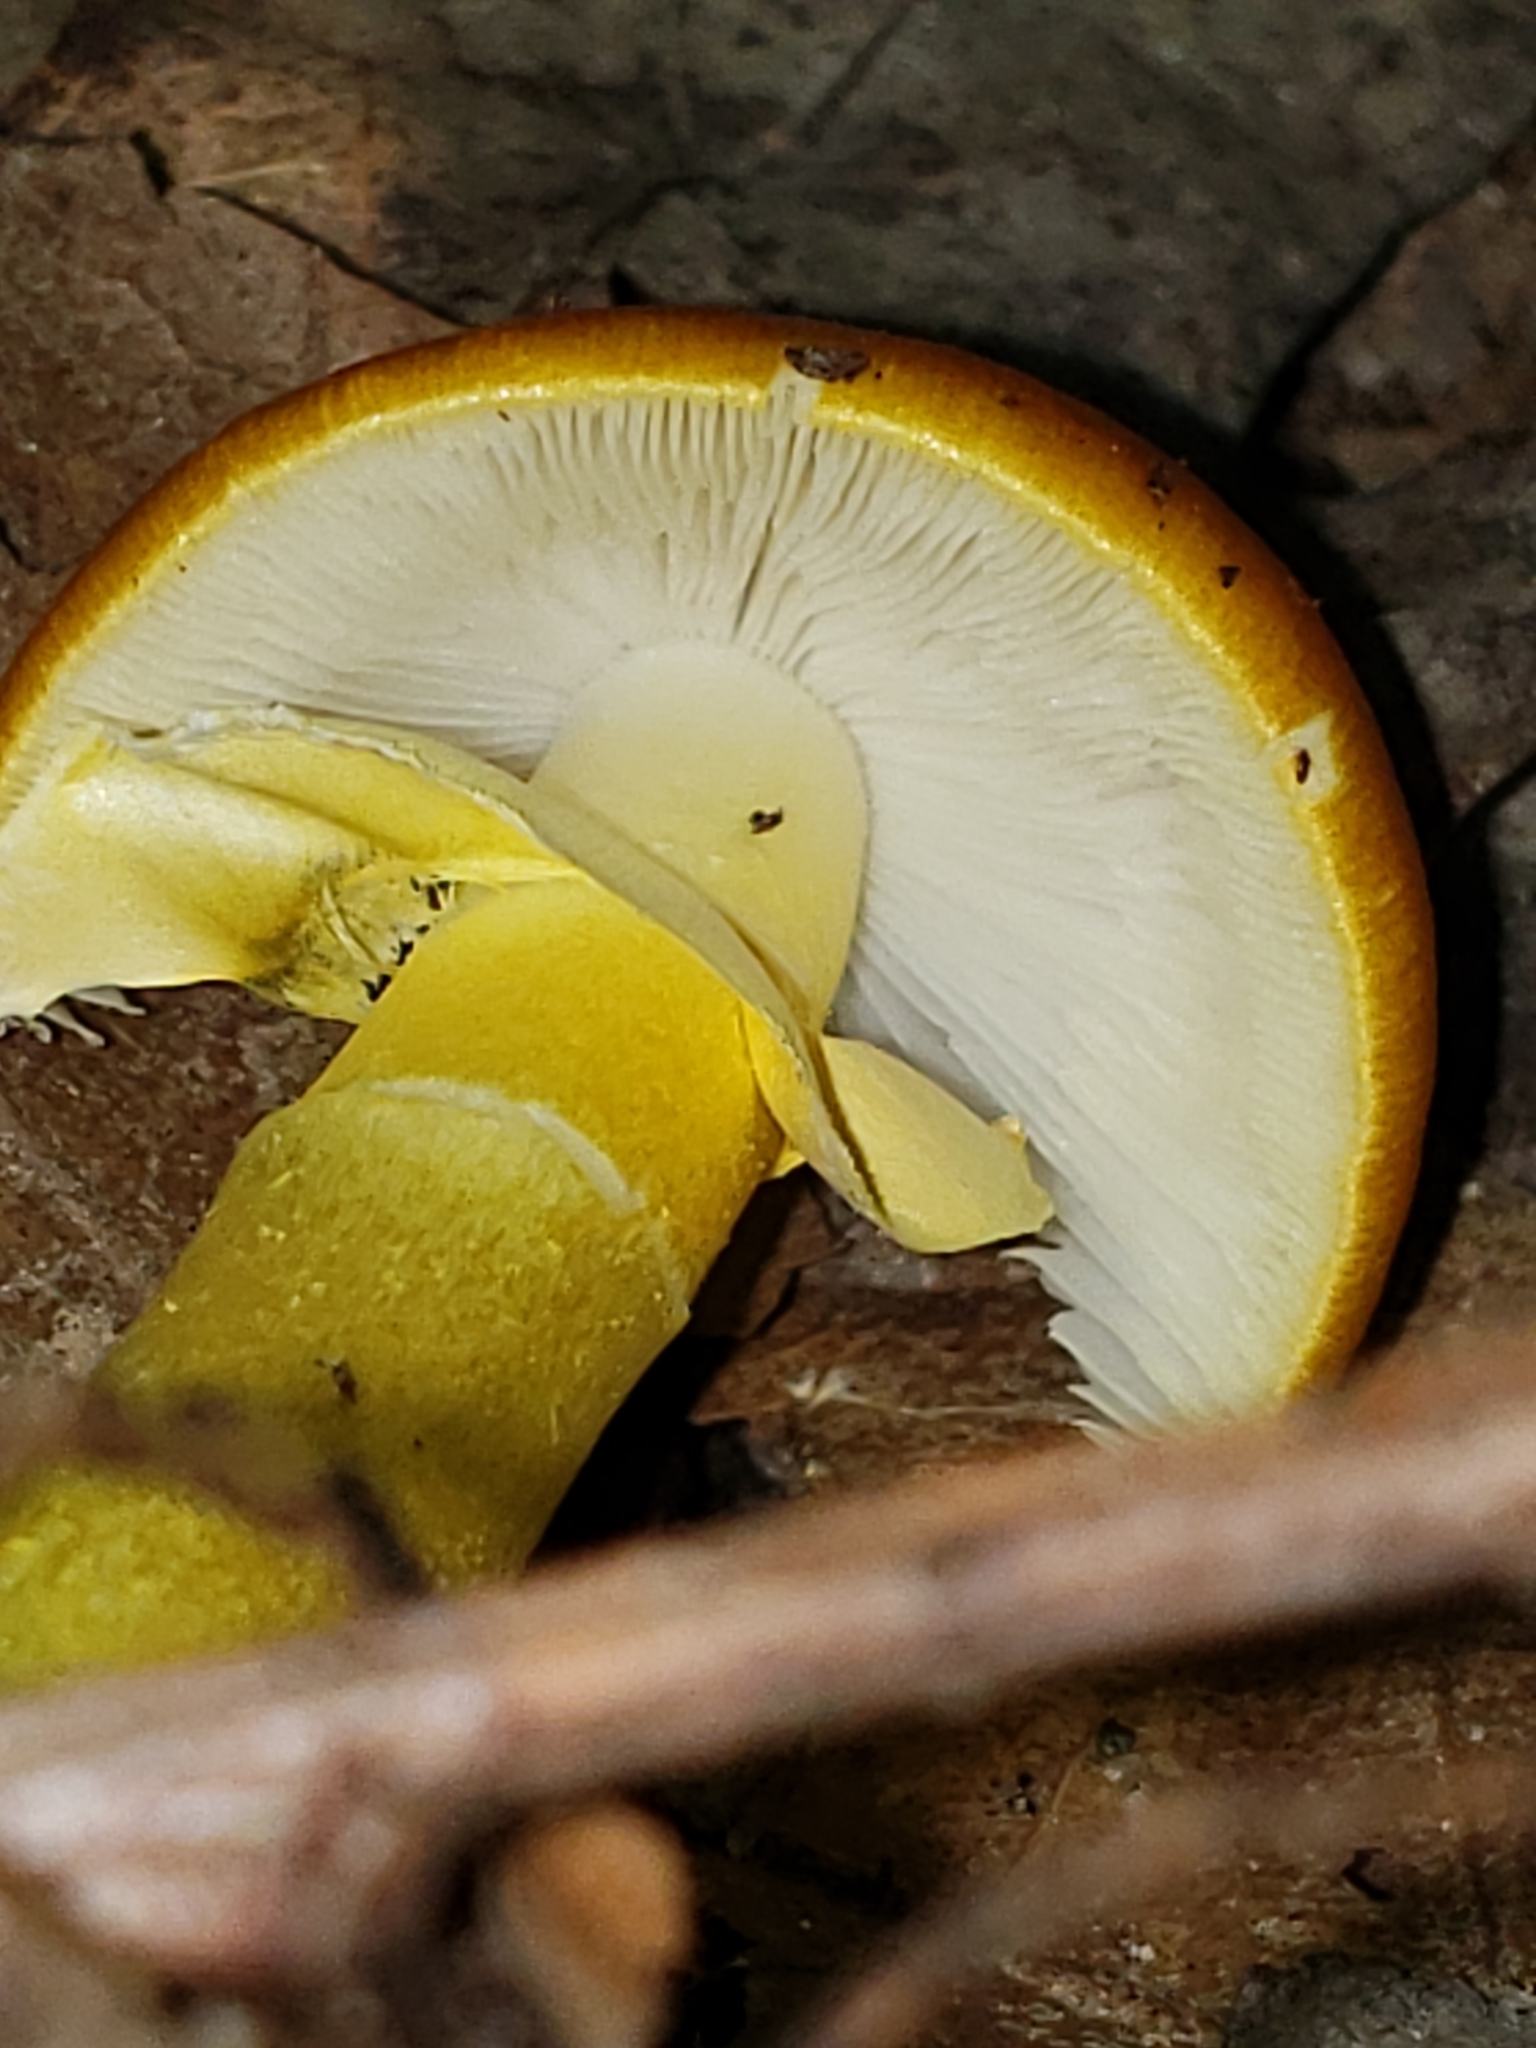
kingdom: Fungi
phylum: Basidiomycota
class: Agaricomycetes
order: Agaricales
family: Amanitaceae
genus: Amanita
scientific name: Amanita flavoconia
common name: Yellow patches
